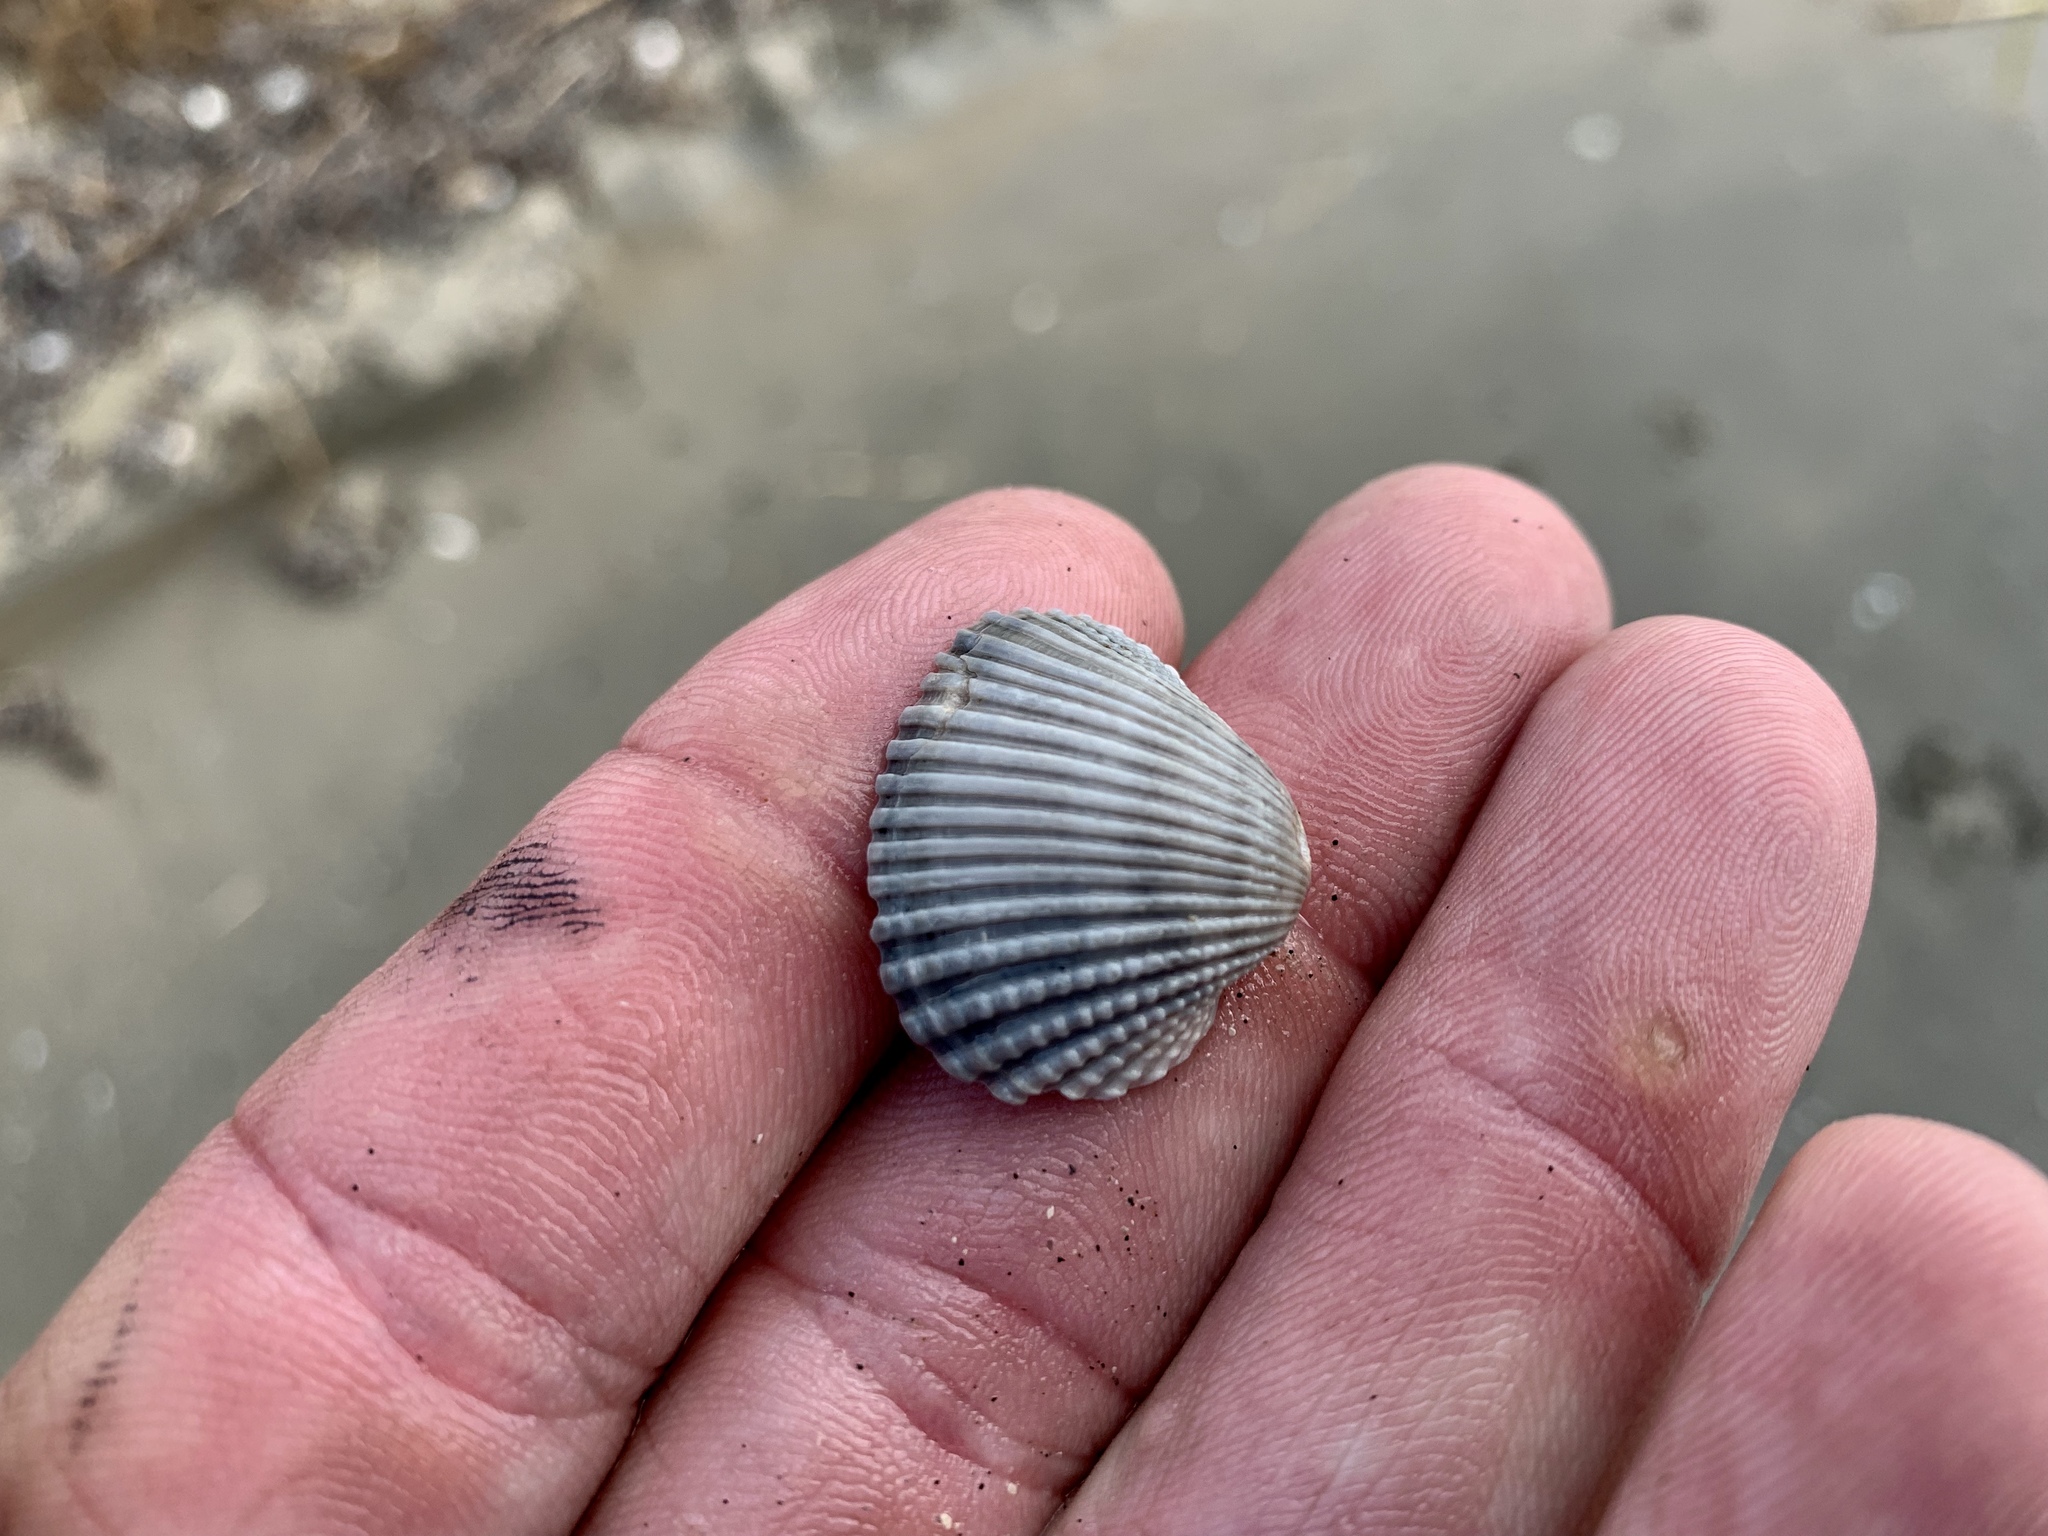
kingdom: Animalia
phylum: Mollusca
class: Bivalvia
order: Arcida
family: Arcidae
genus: Anadara
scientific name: Anadara brasiliana
